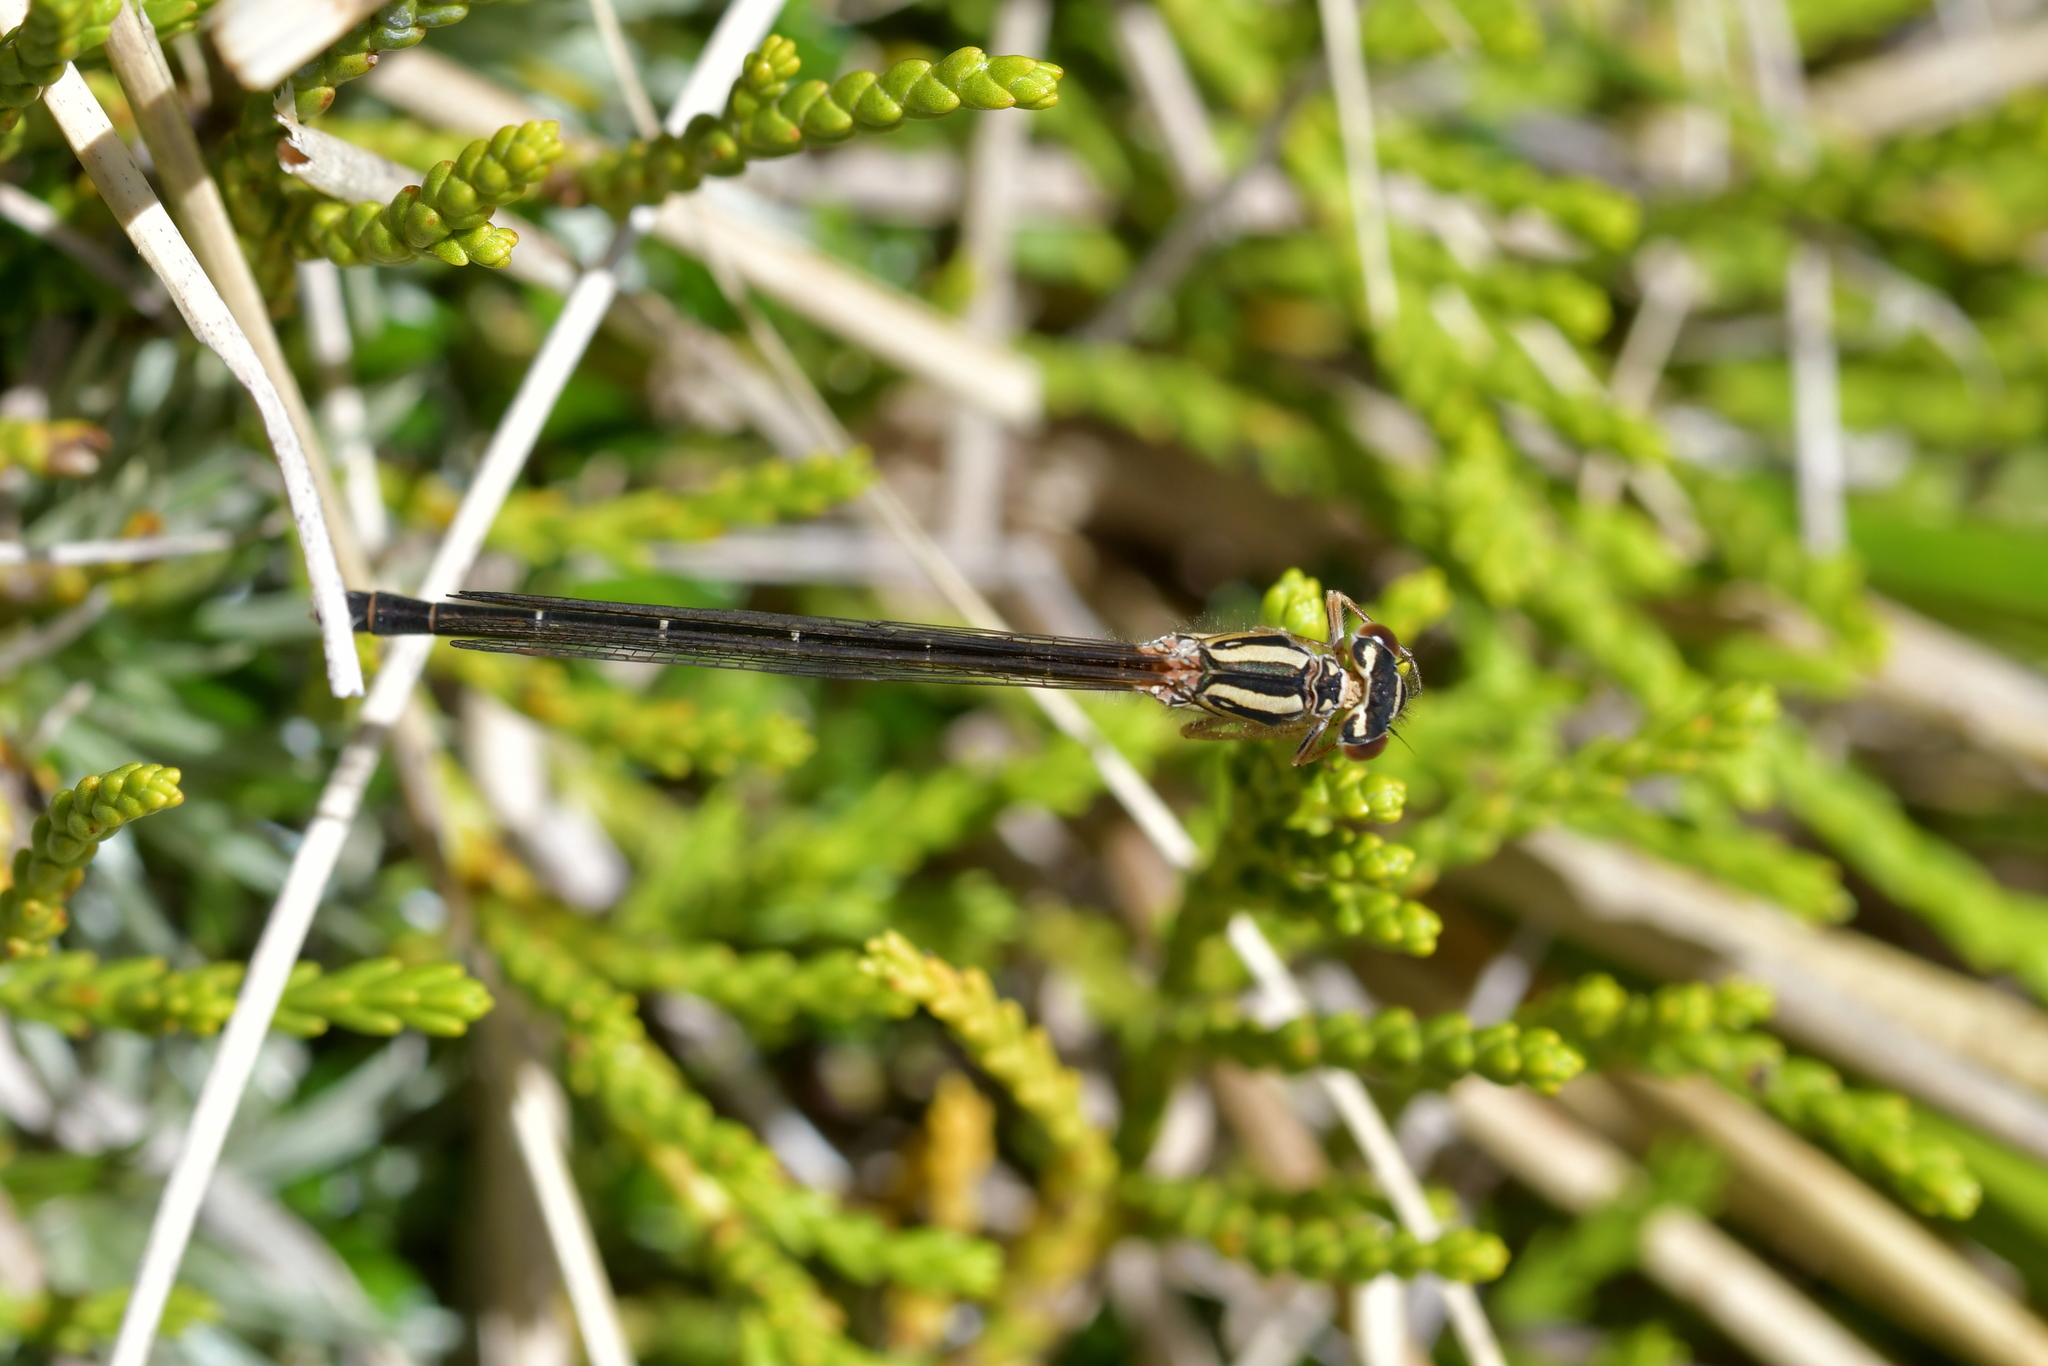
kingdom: Animalia
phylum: Arthropoda
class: Insecta
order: Odonata
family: Coenagrionidae
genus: Xanthocnemis
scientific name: Xanthocnemis zealandica
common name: Common redcoat damselfly
